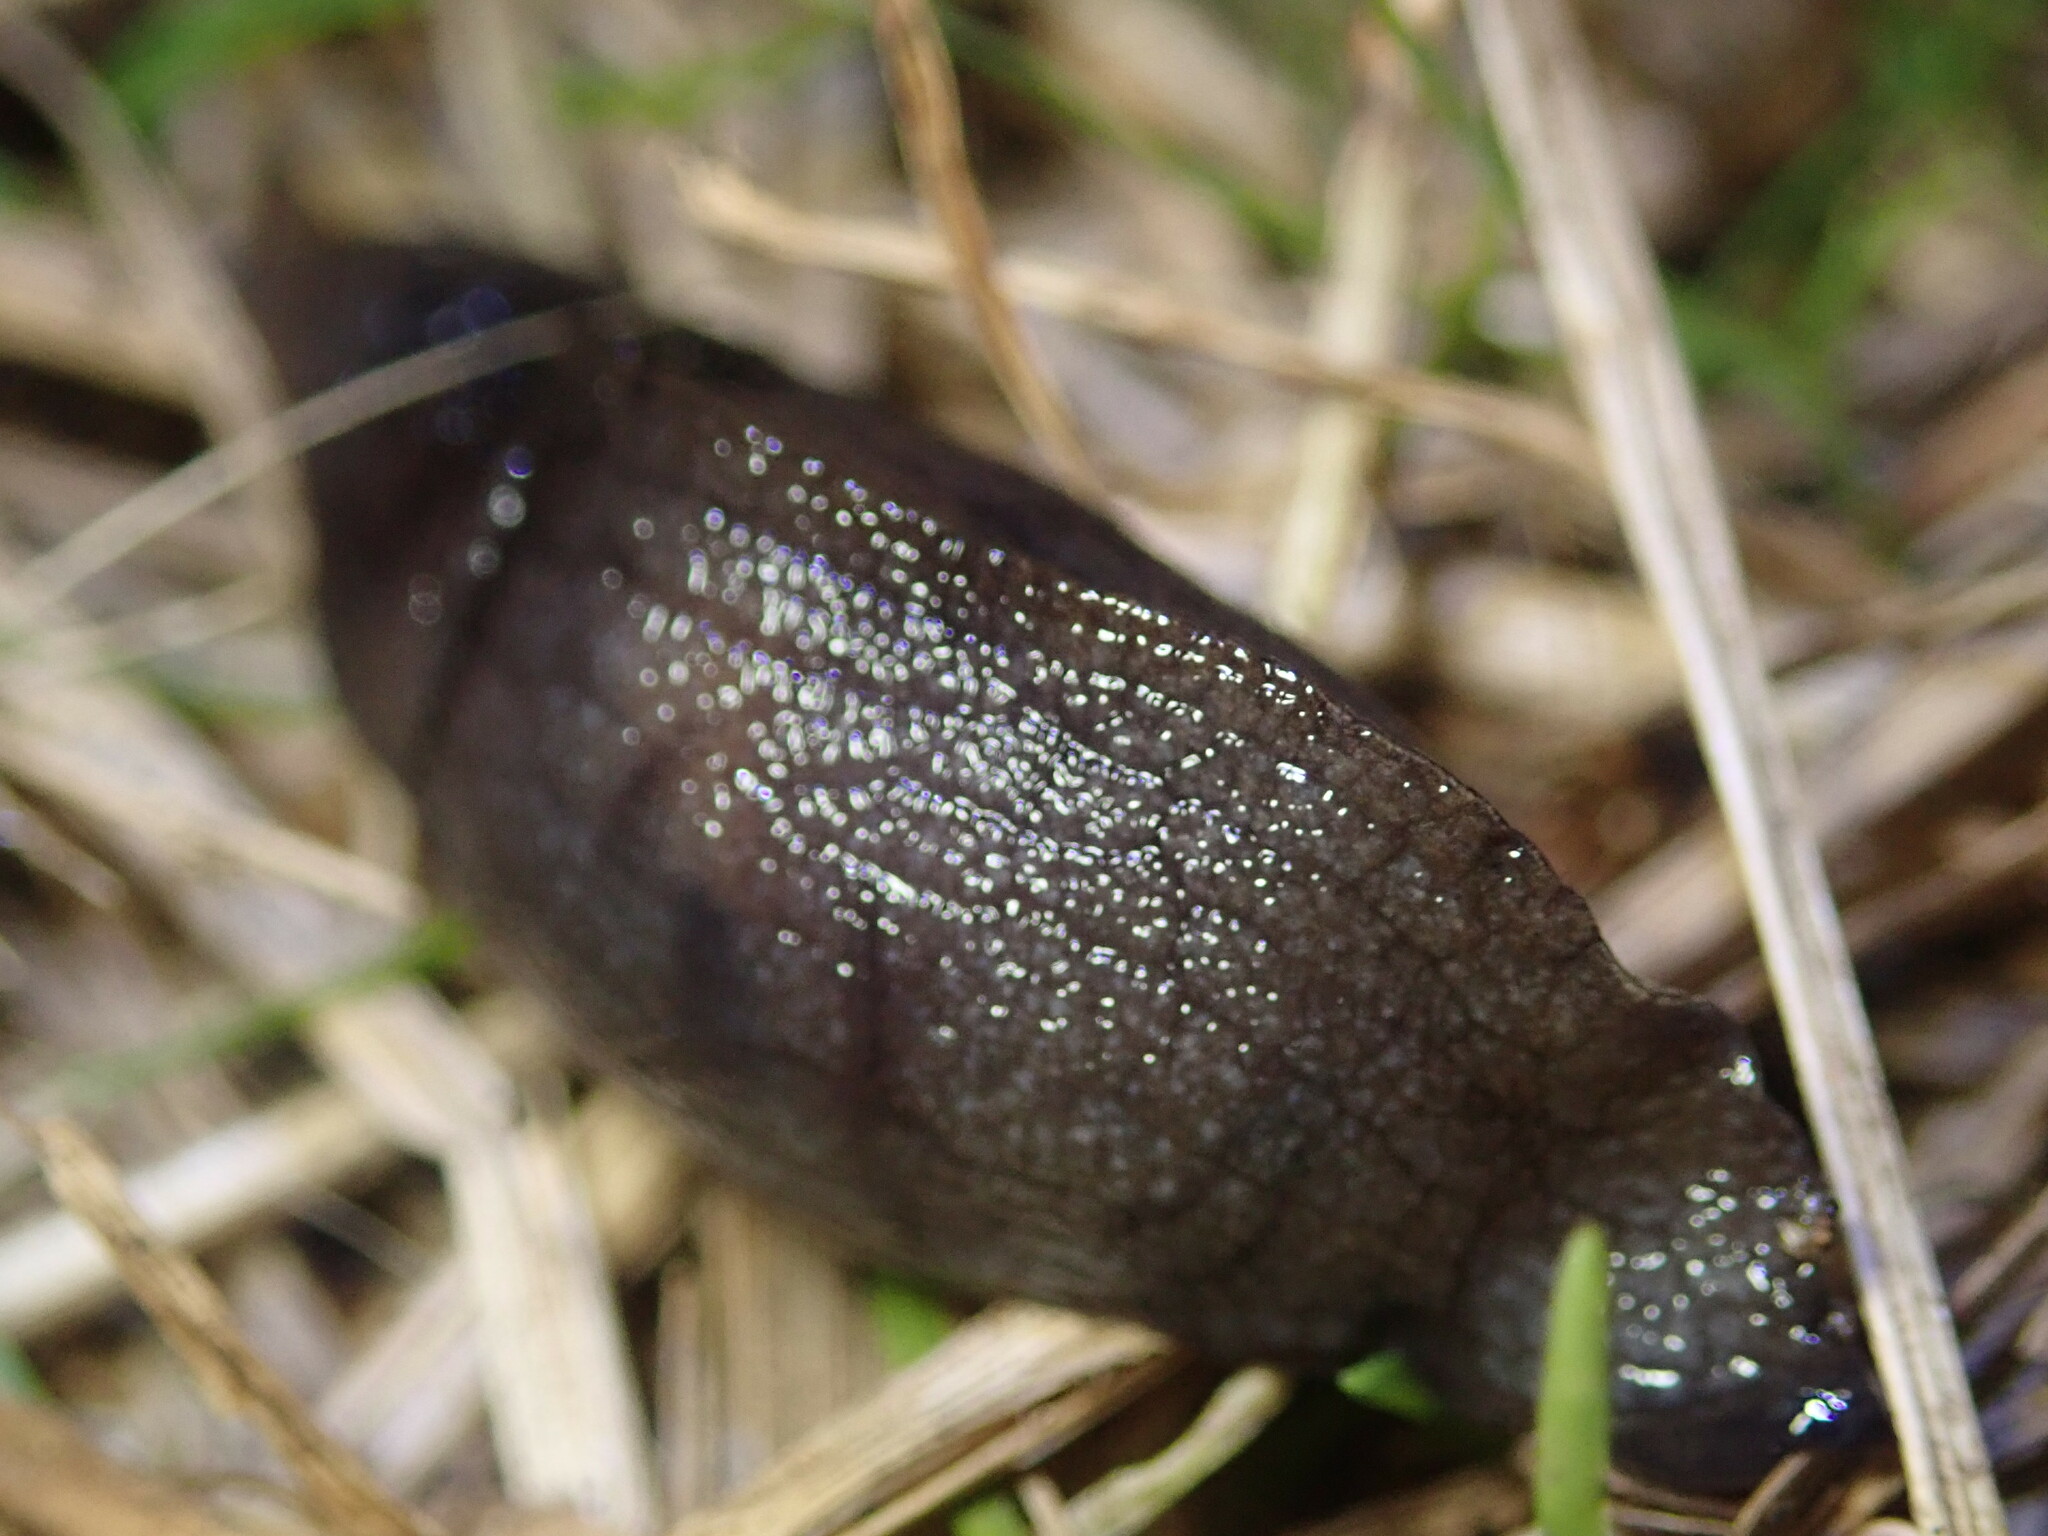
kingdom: Animalia
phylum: Mollusca
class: Gastropoda
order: Stylommatophora
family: Milacidae
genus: Milax
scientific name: Milax gagates
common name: Greenhouse slug
